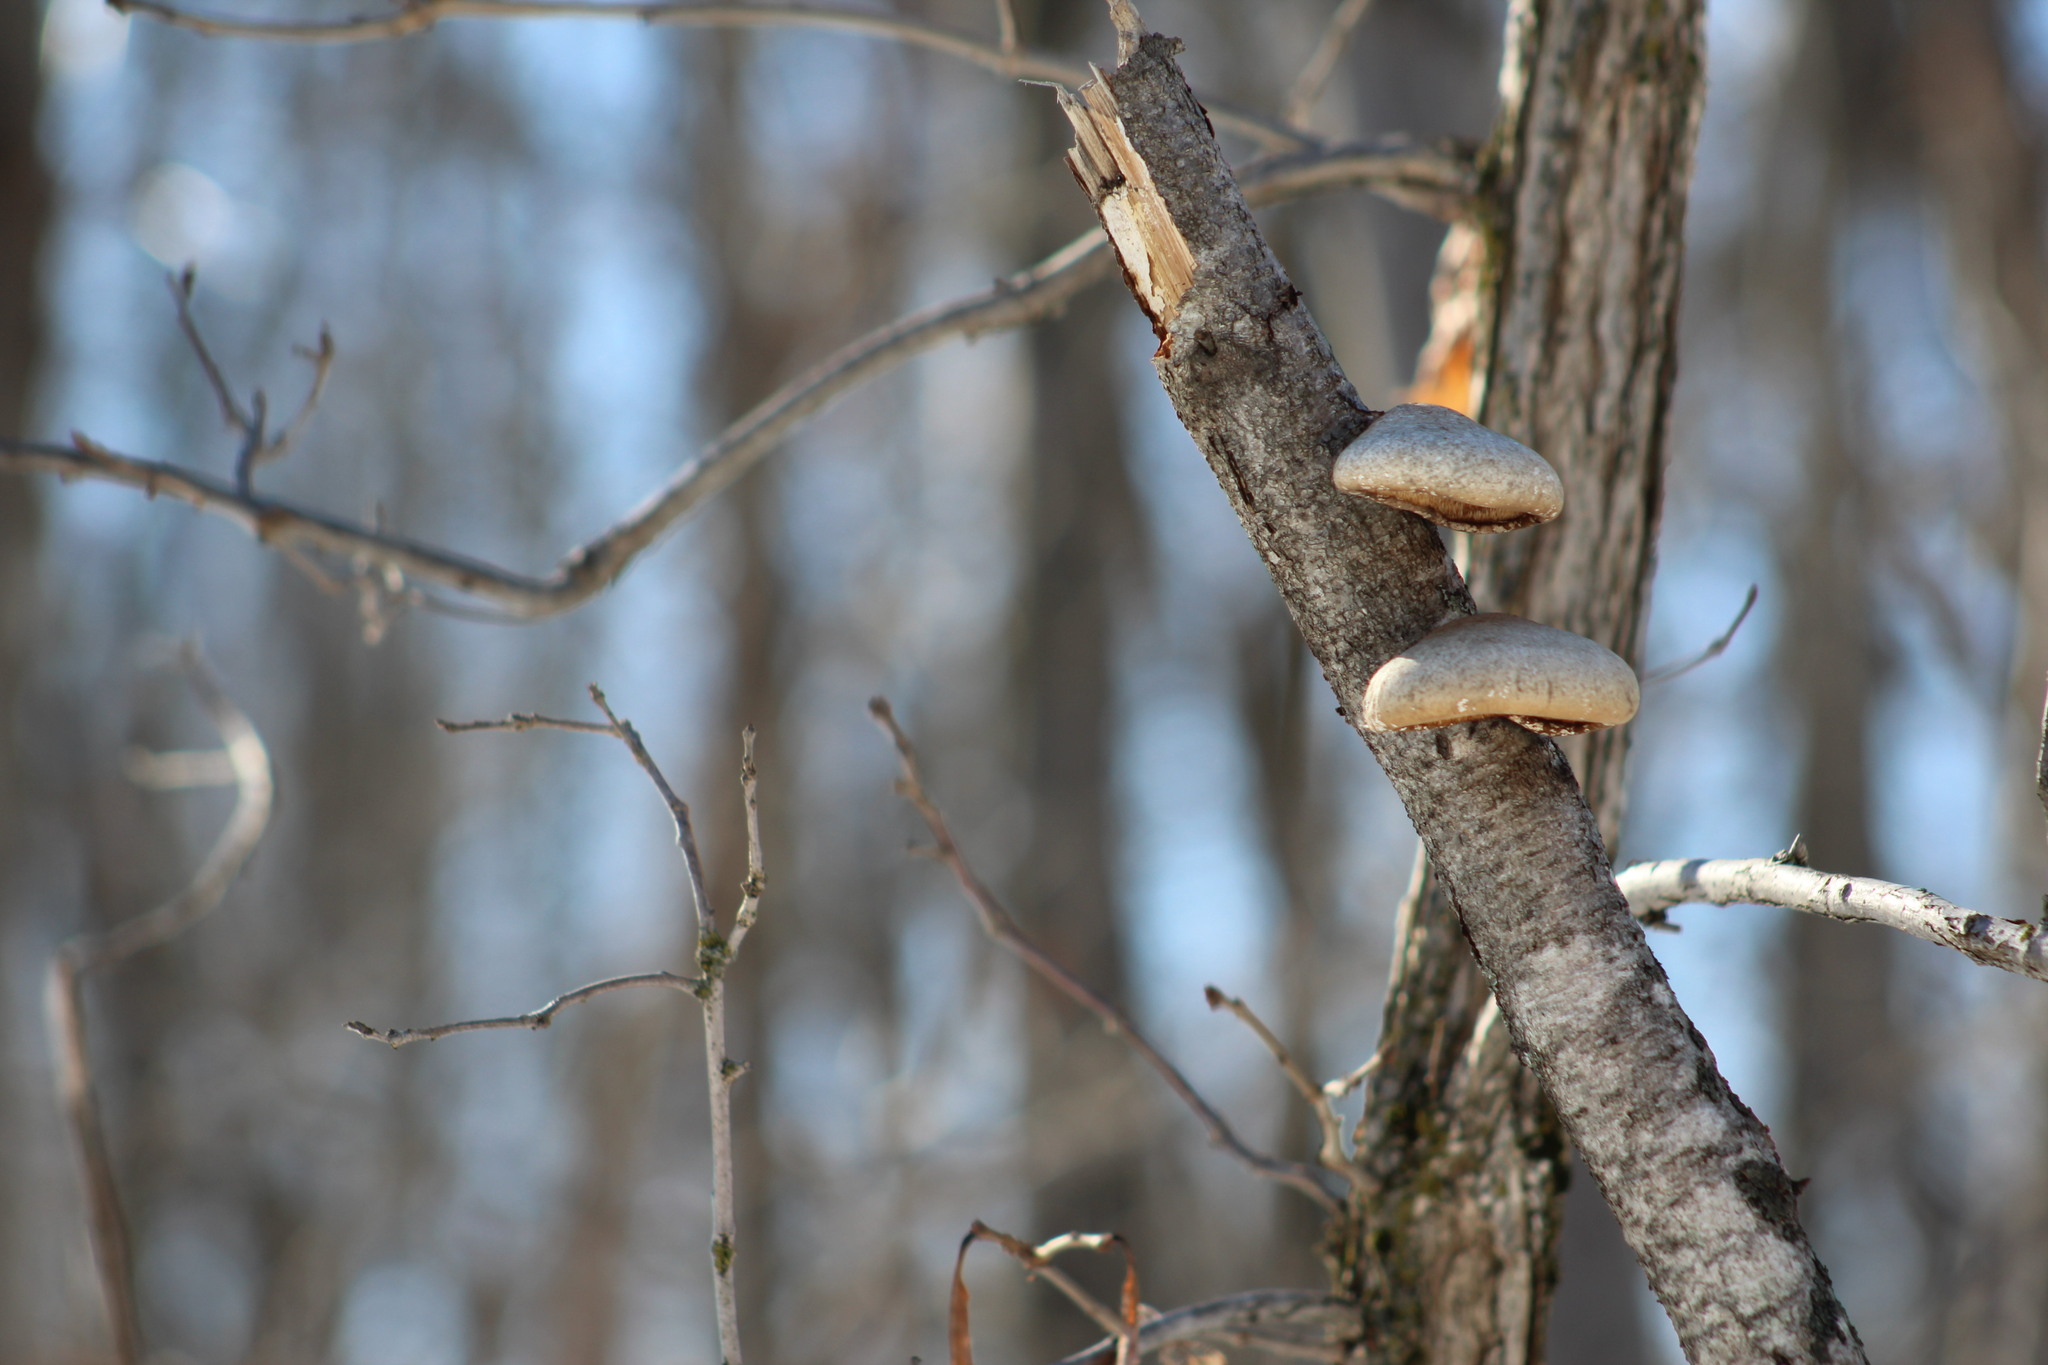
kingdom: Fungi
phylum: Basidiomycota
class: Agaricomycetes
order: Polyporales
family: Fomitopsidaceae
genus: Fomitopsis
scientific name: Fomitopsis betulina
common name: Birch polypore
